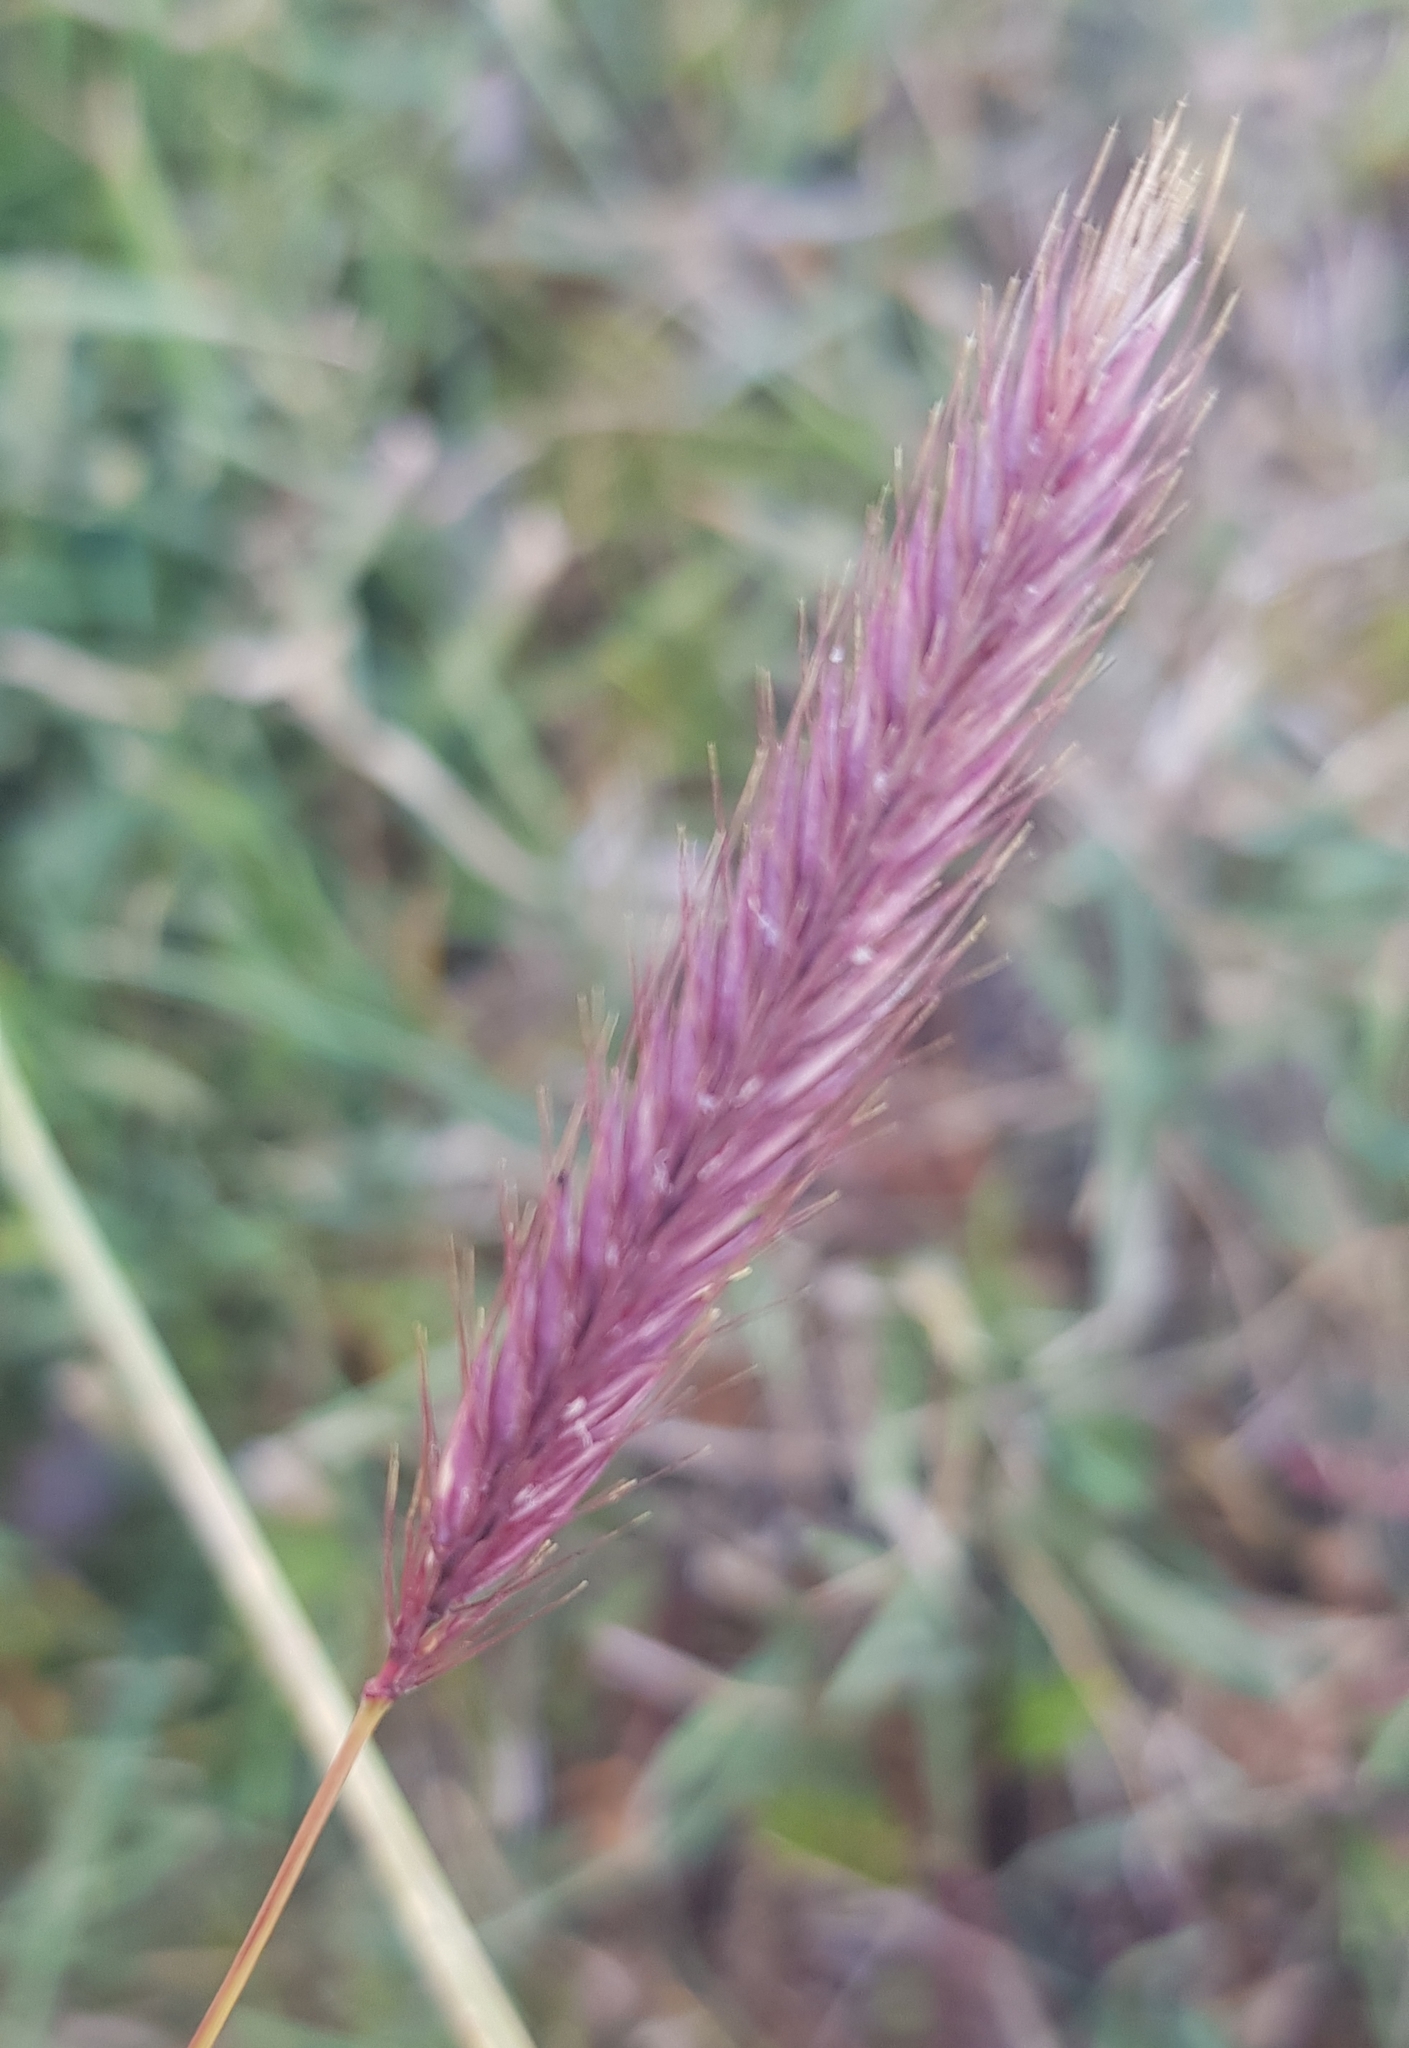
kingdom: Plantae
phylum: Tracheophyta
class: Liliopsida
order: Poales
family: Poaceae
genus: Hordeum
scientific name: Hordeum brevisubulatum
